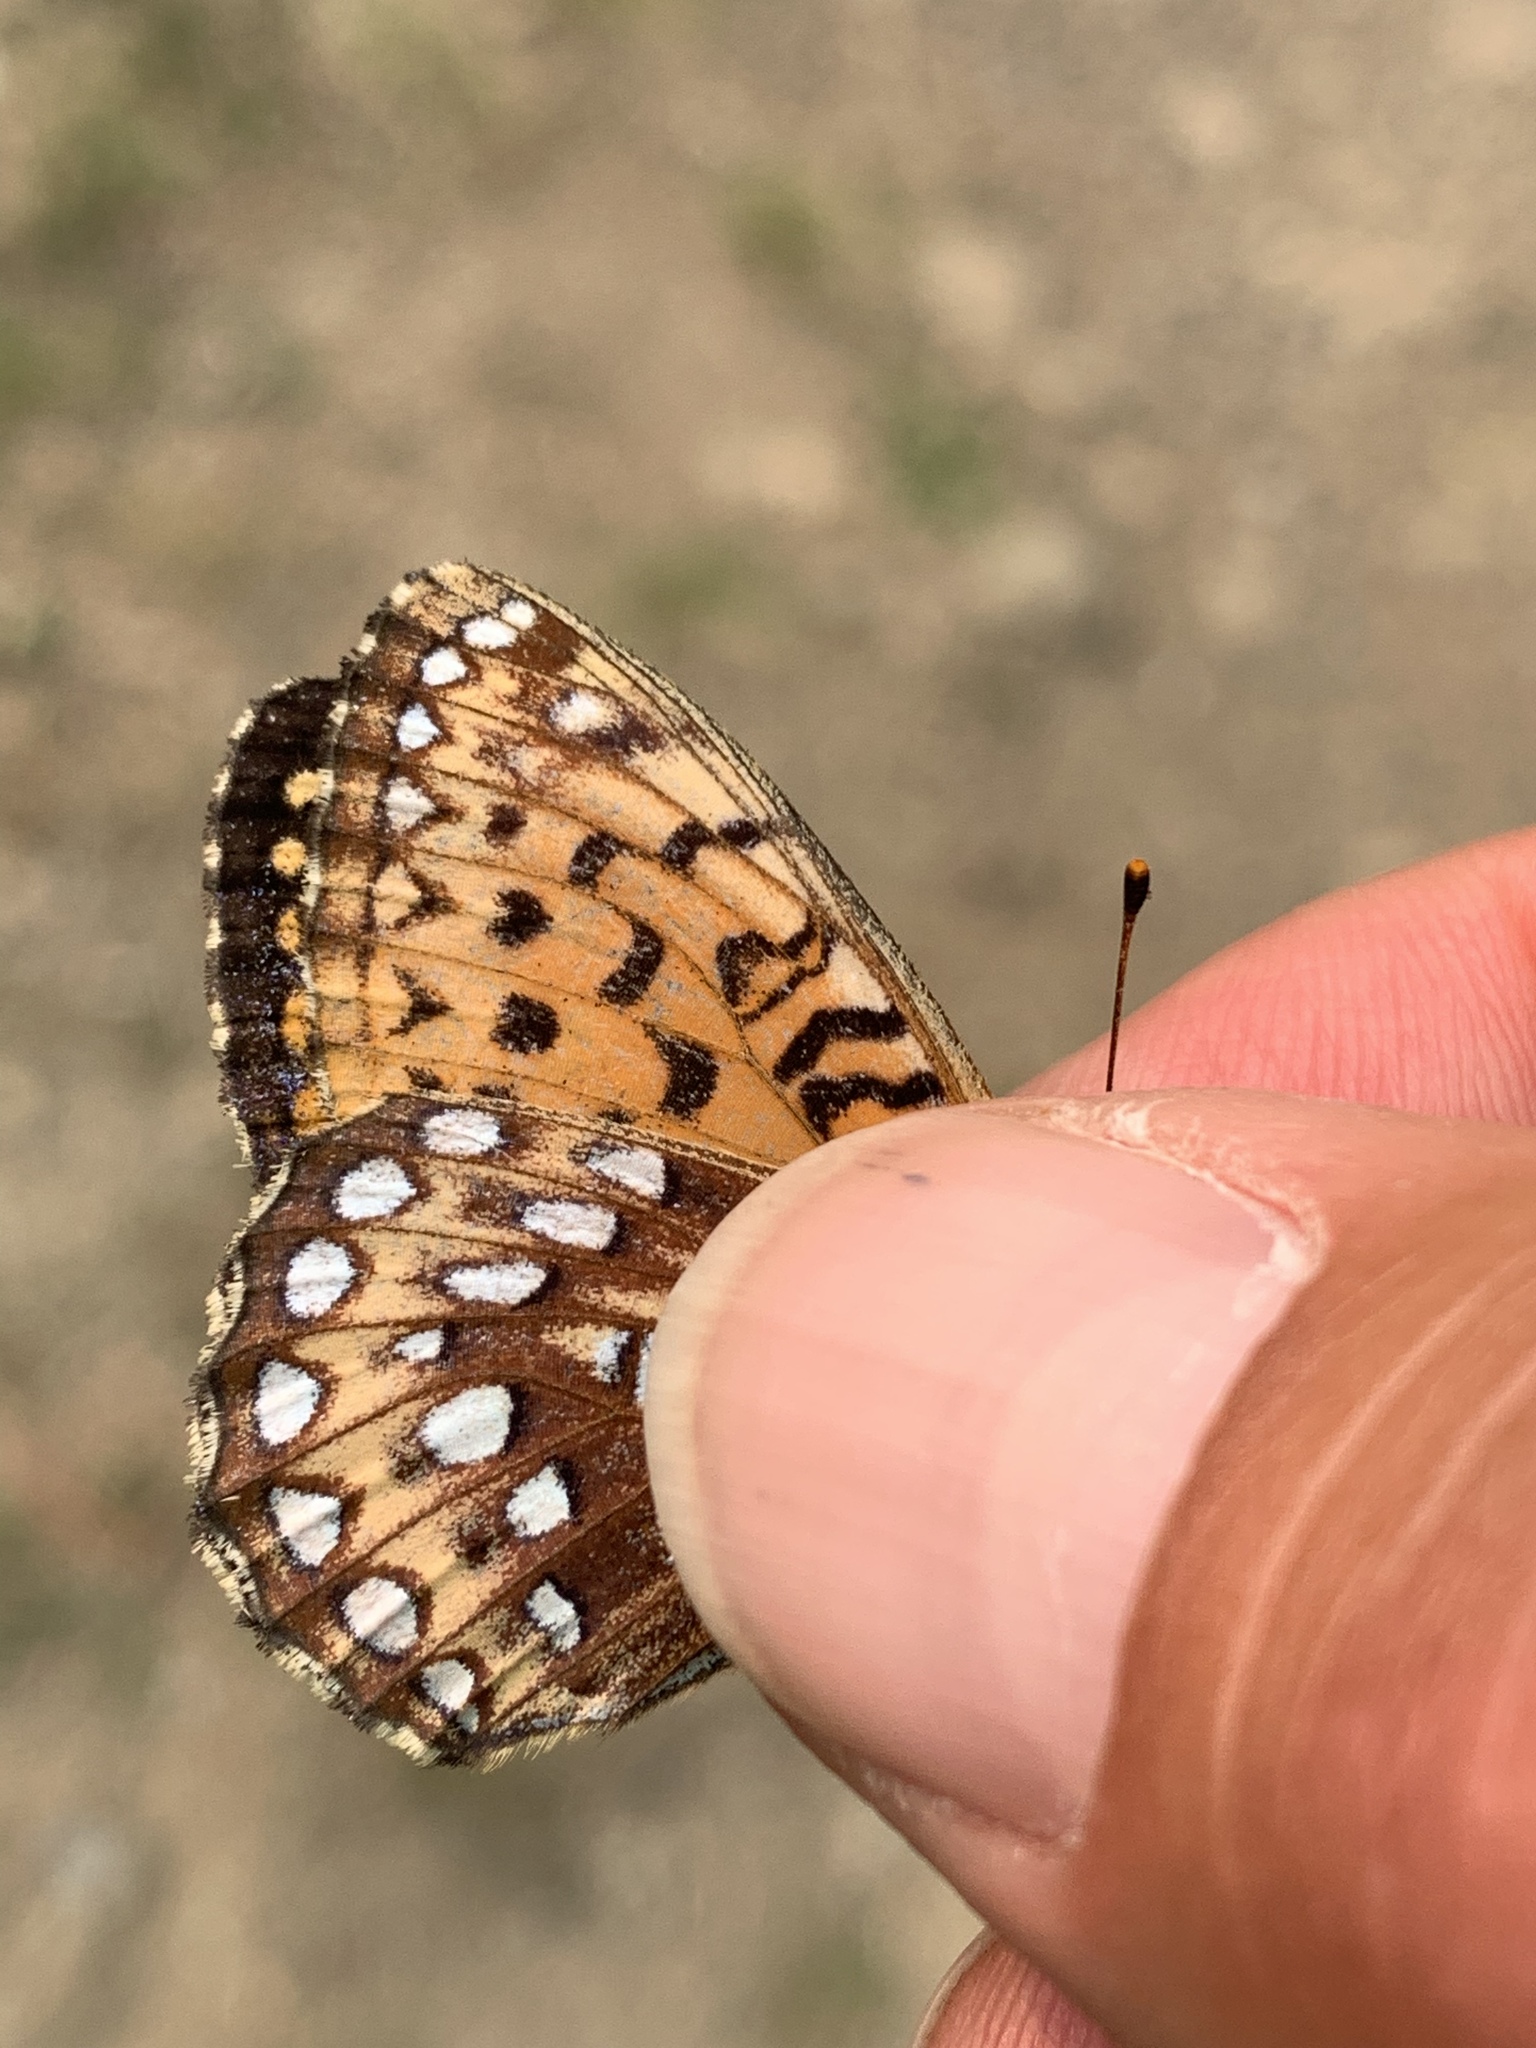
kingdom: Animalia
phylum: Arthropoda
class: Insecta
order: Lepidoptera
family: Nymphalidae
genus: Speyeria
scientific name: Speyeria atlantis
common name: Atlantis fritillary
